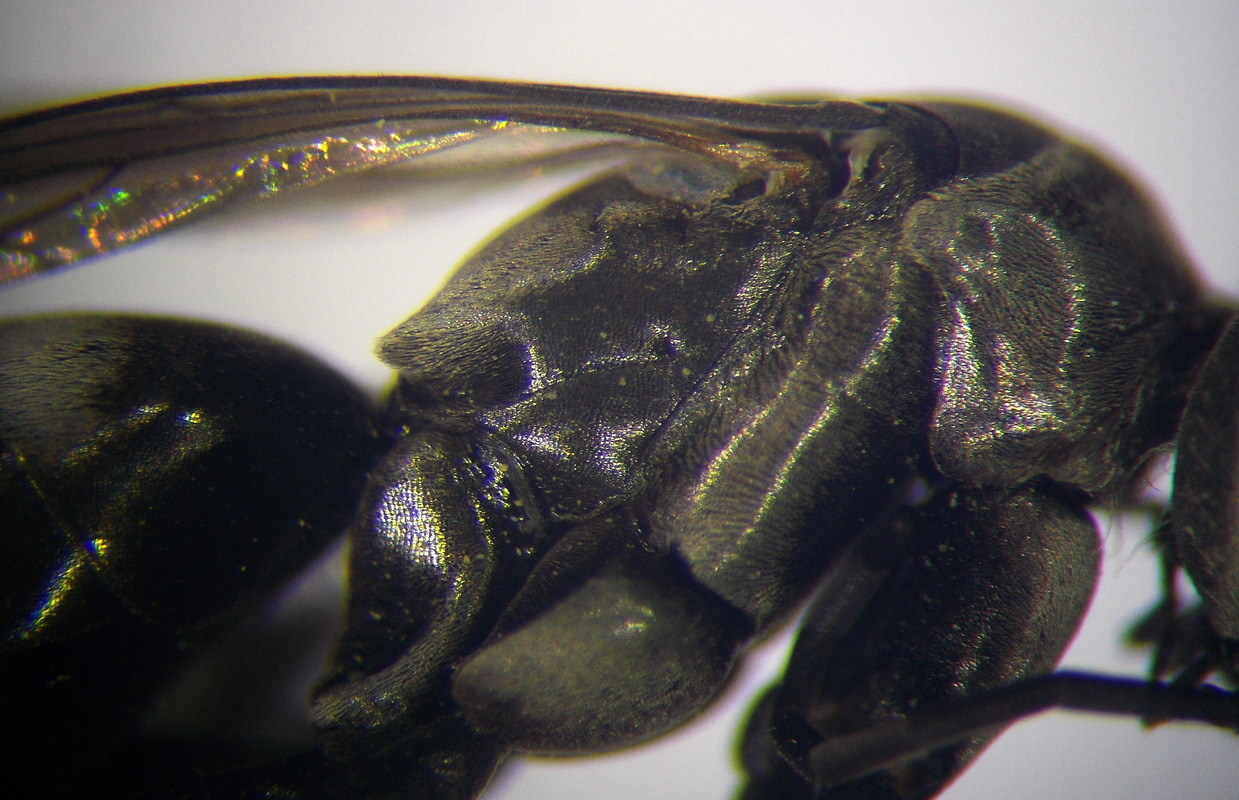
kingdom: Animalia
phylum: Arthropoda
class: Insecta
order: Hymenoptera
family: Pompilidae
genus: Aporinellus
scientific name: Aporinellus sexmaculatus
